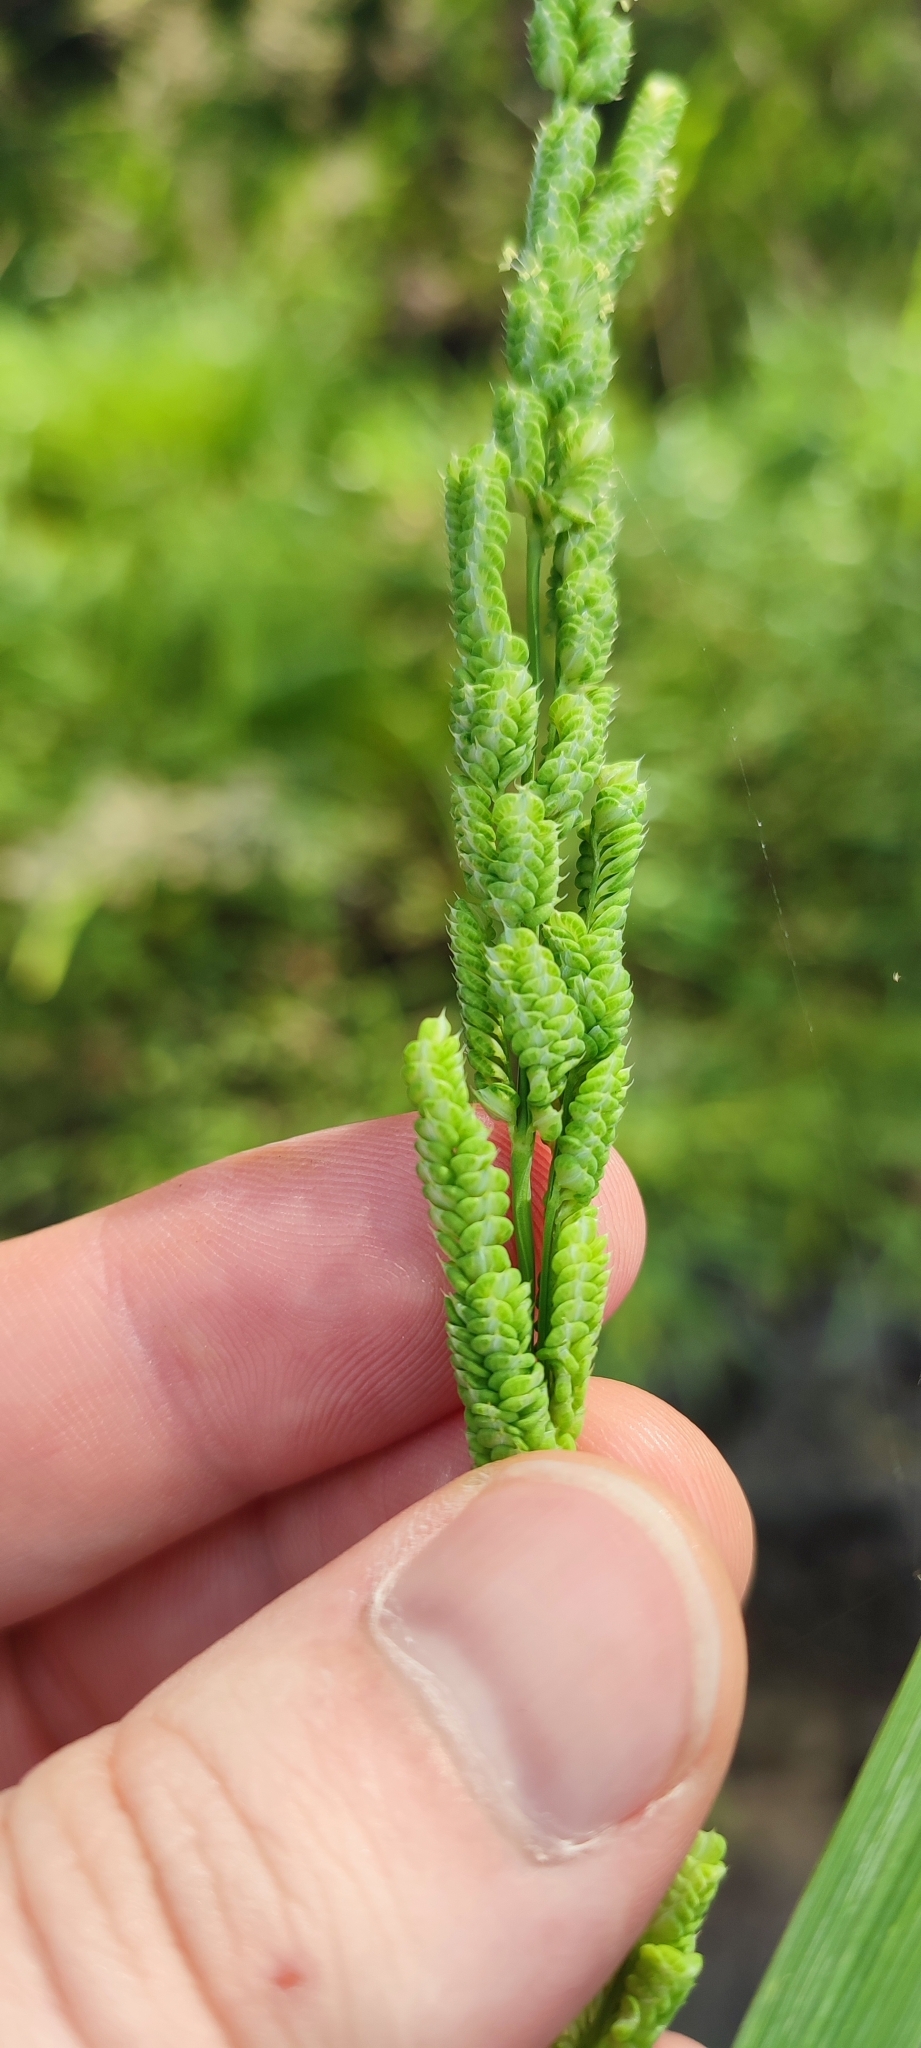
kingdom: Plantae
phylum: Tracheophyta
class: Liliopsida
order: Poales
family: Poaceae
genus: Beckmannia
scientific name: Beckmannia syzigachne
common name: American slough-grass
